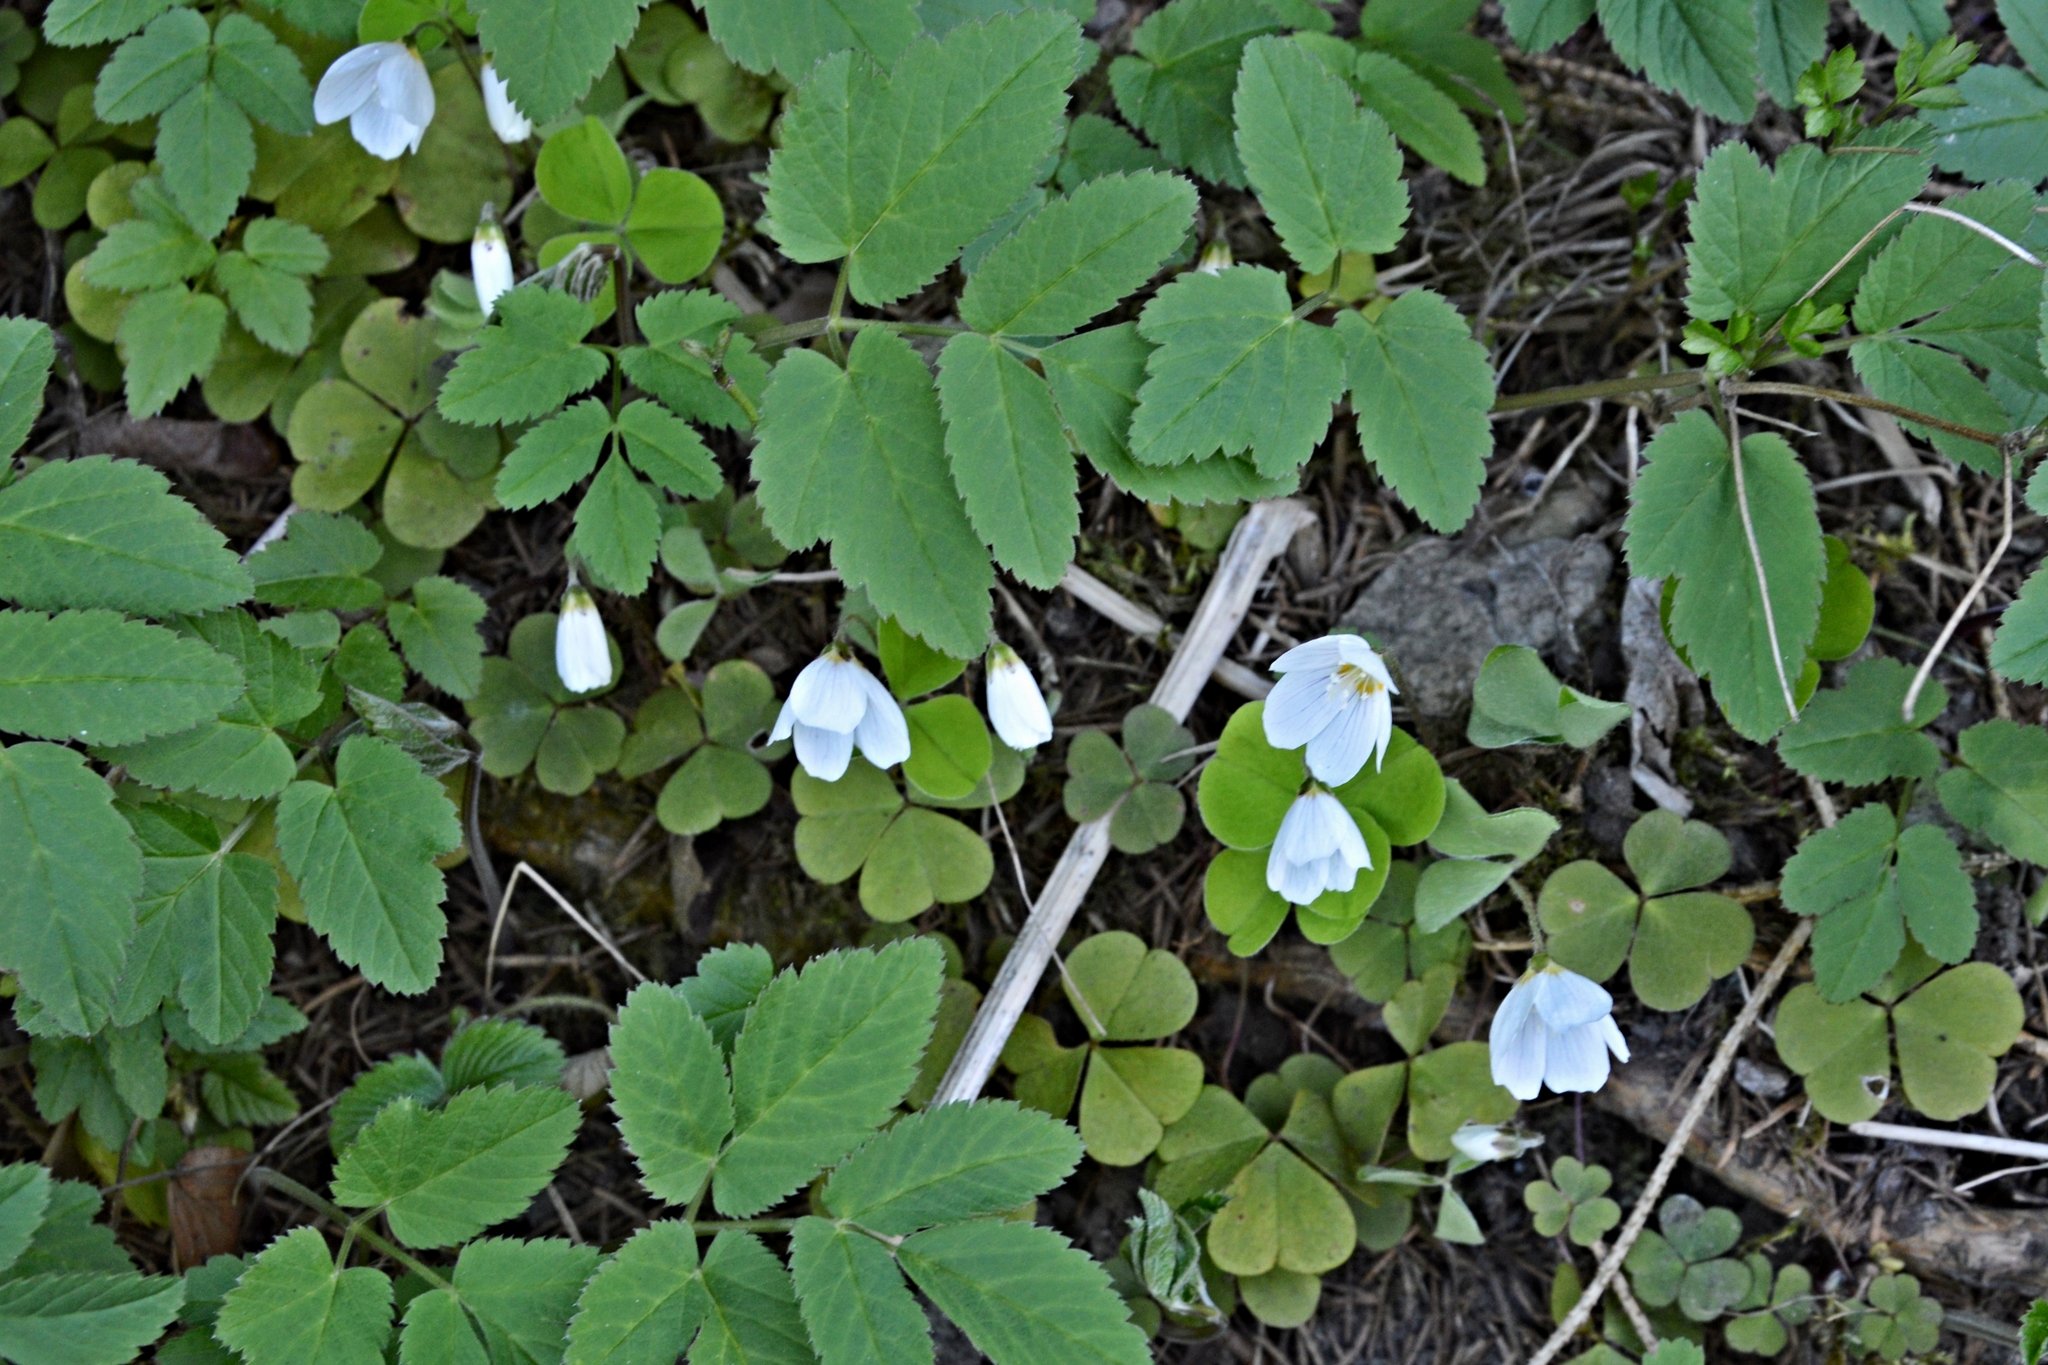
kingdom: Plantae
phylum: Tracheophyta
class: Magnoliopsida
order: Oxalidales
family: Oxalidaceae
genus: Oxalis
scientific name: Oxalis acetosella
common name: Wood-sorrel
